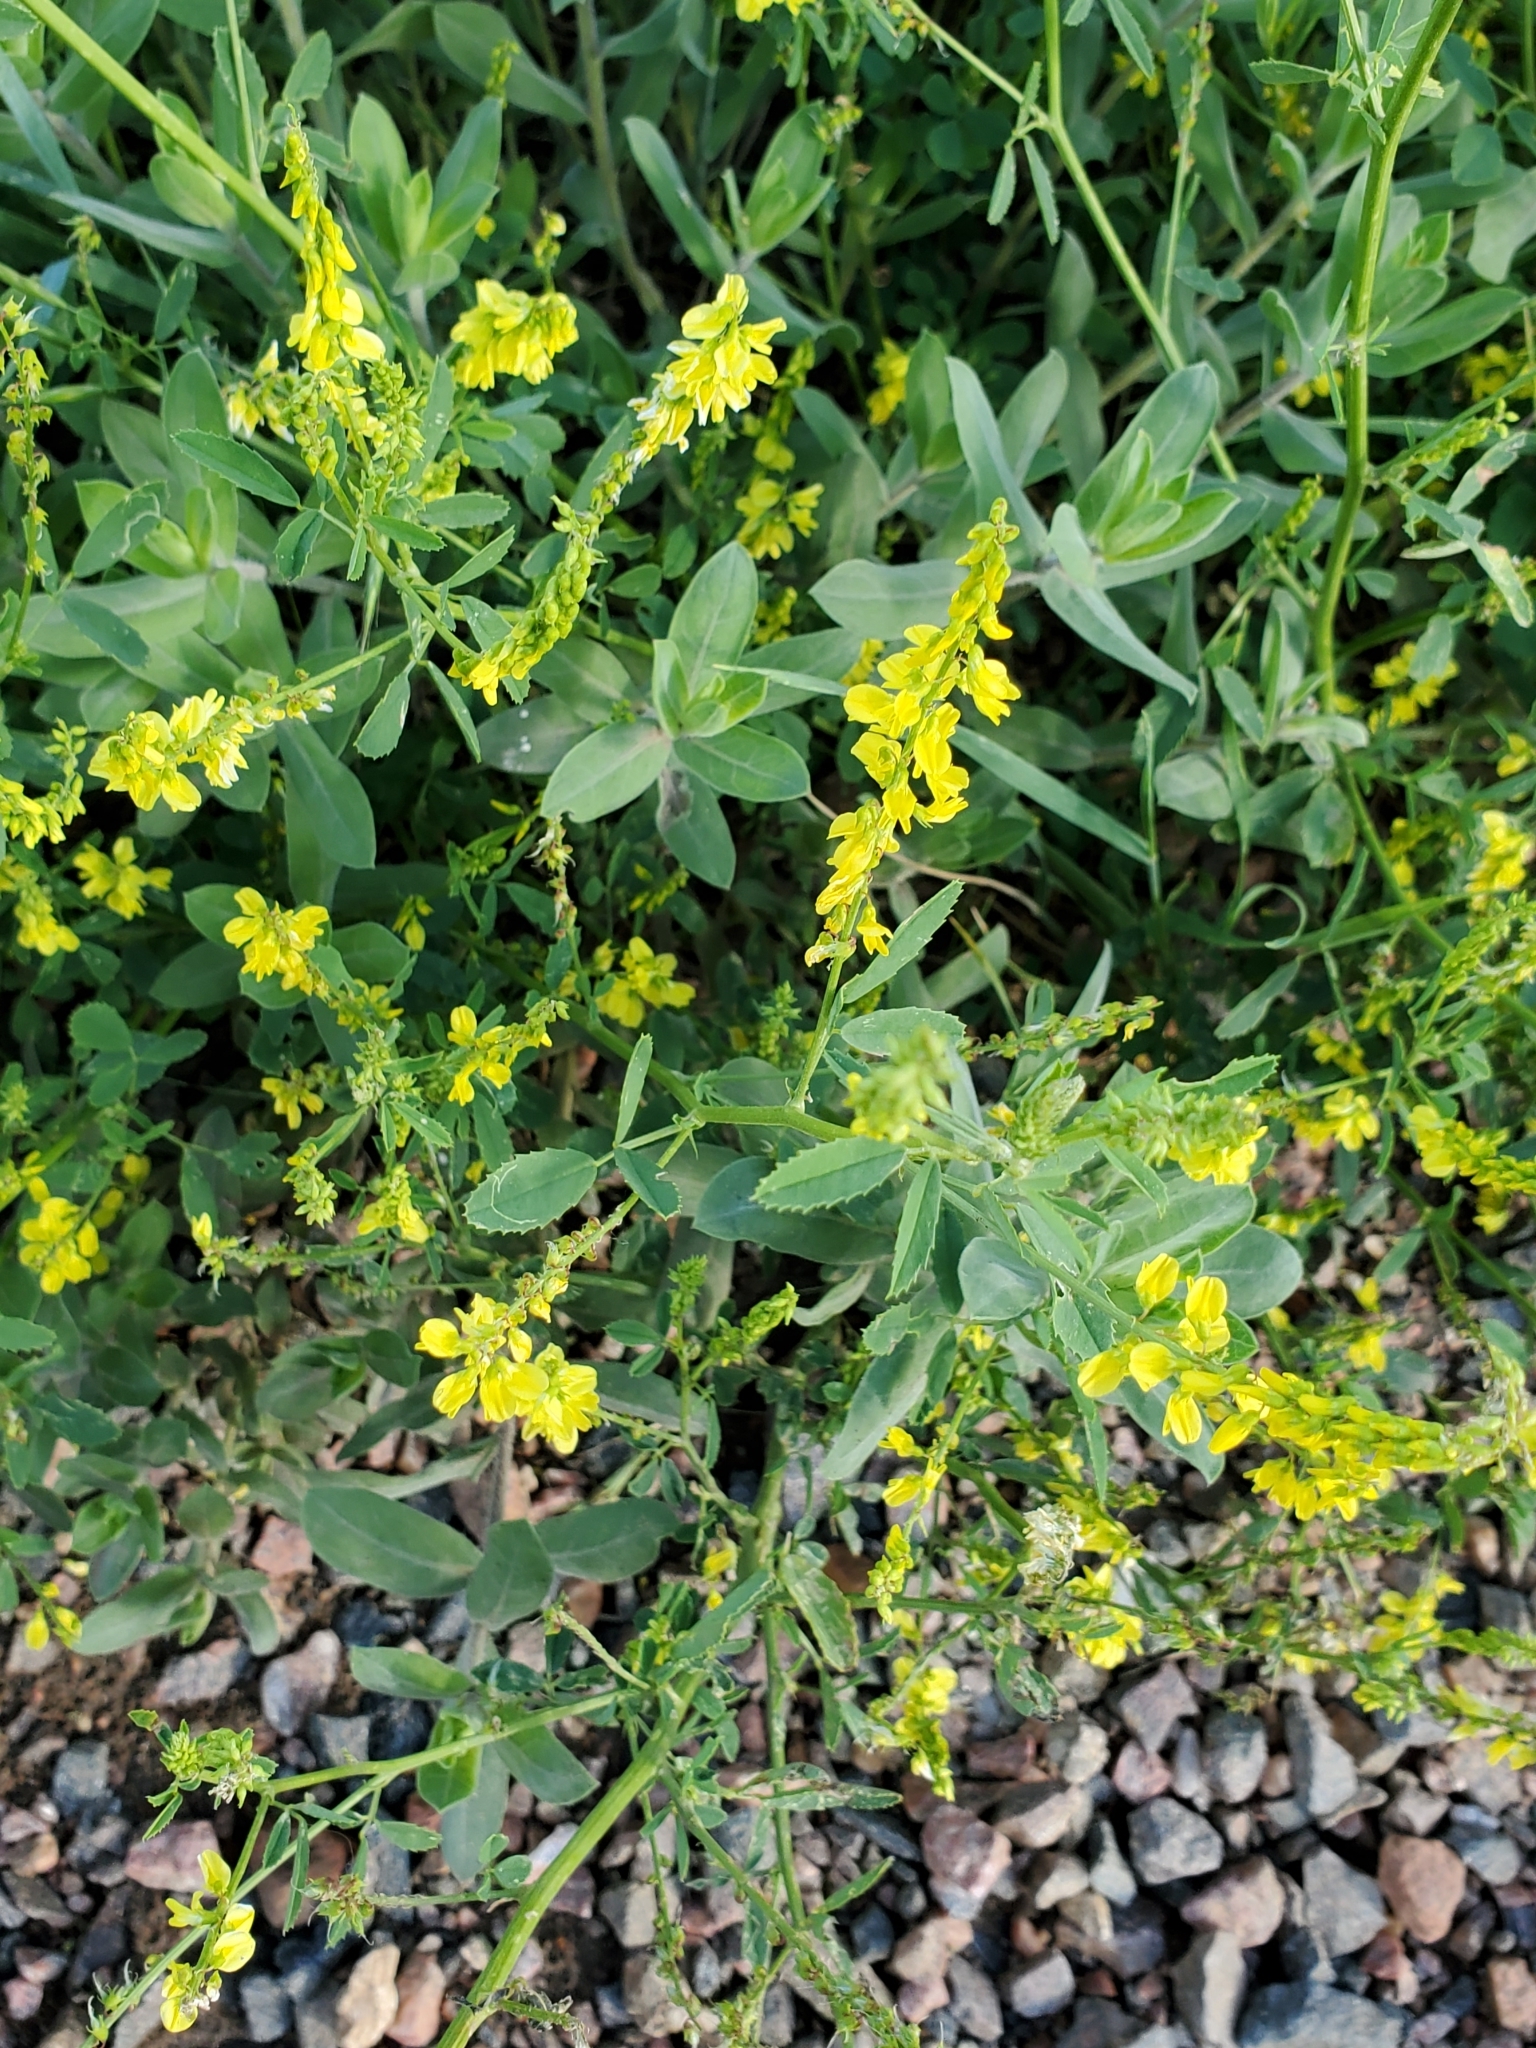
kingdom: Plantae
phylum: Tracheophyta
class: Magnoliopsida
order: Fabales
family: Fabaceae
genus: Melilotus
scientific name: Melilotus officinalis
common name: Sweetclover
